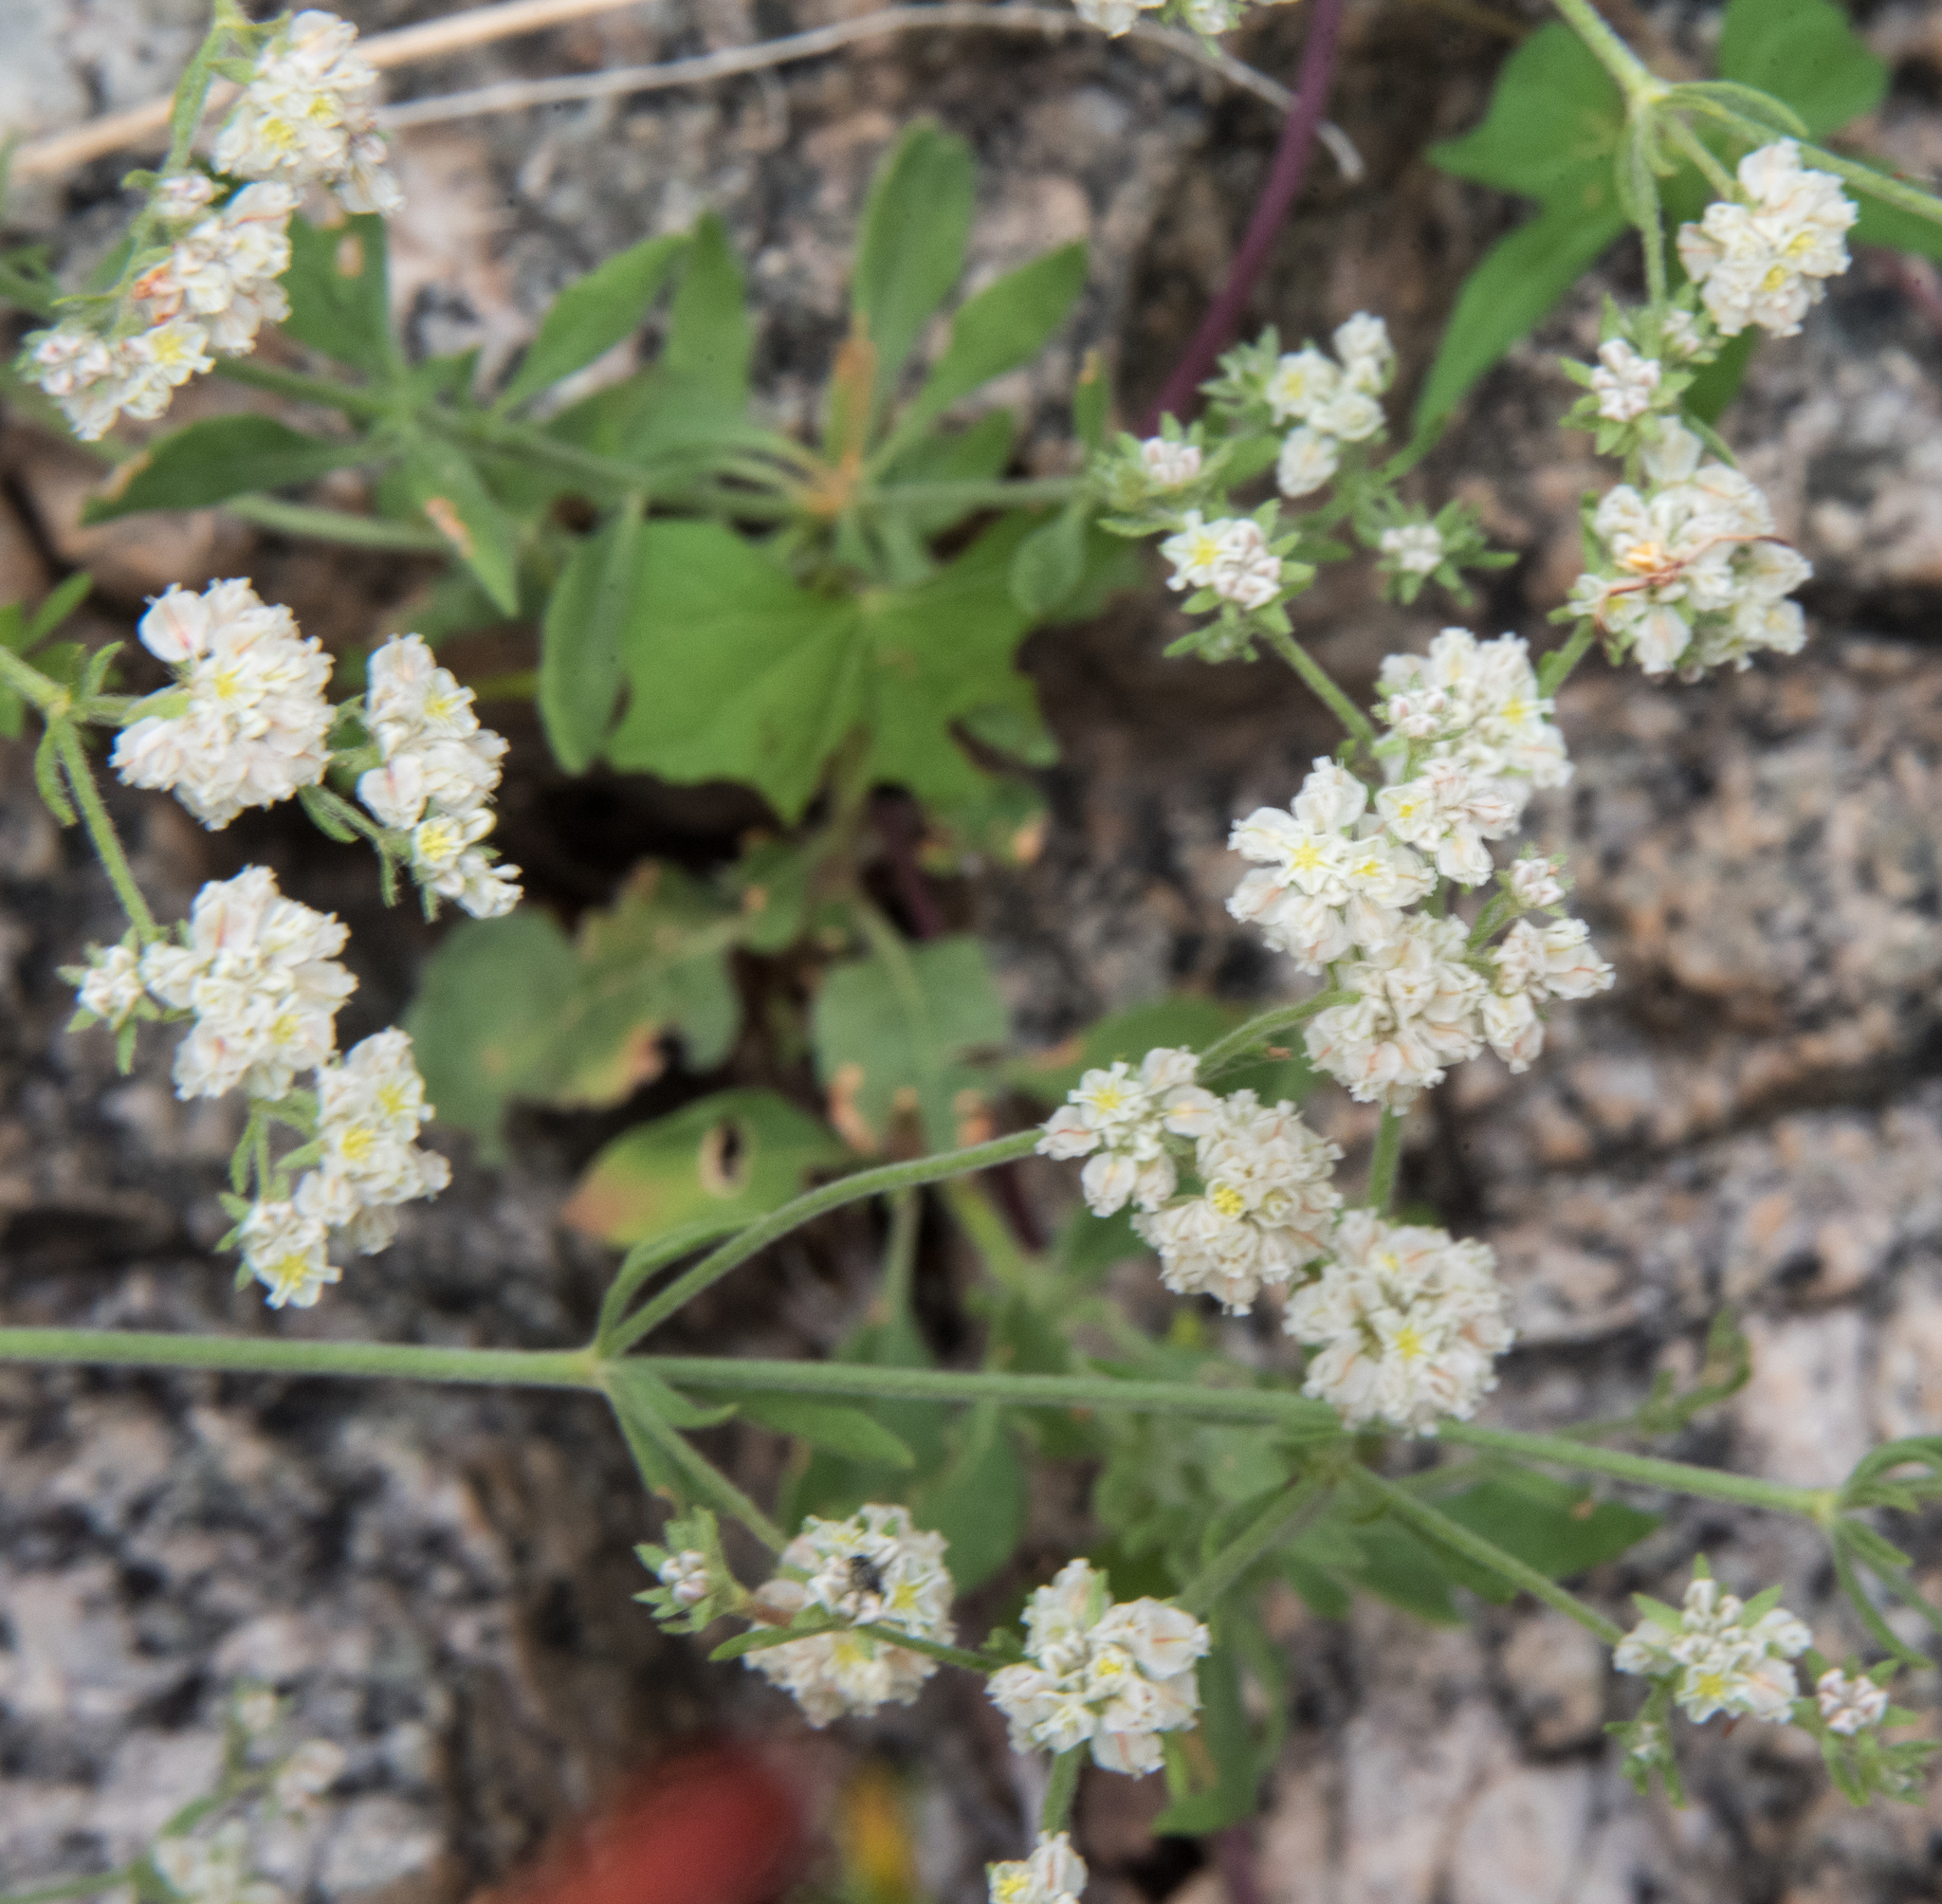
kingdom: Plantae
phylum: Tracheophyta
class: Magnoliopsida
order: Caryophyllales
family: Polygonaceae
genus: Eriogonum
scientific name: Eriogonum abertianum
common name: Abert's wild buckwheat
